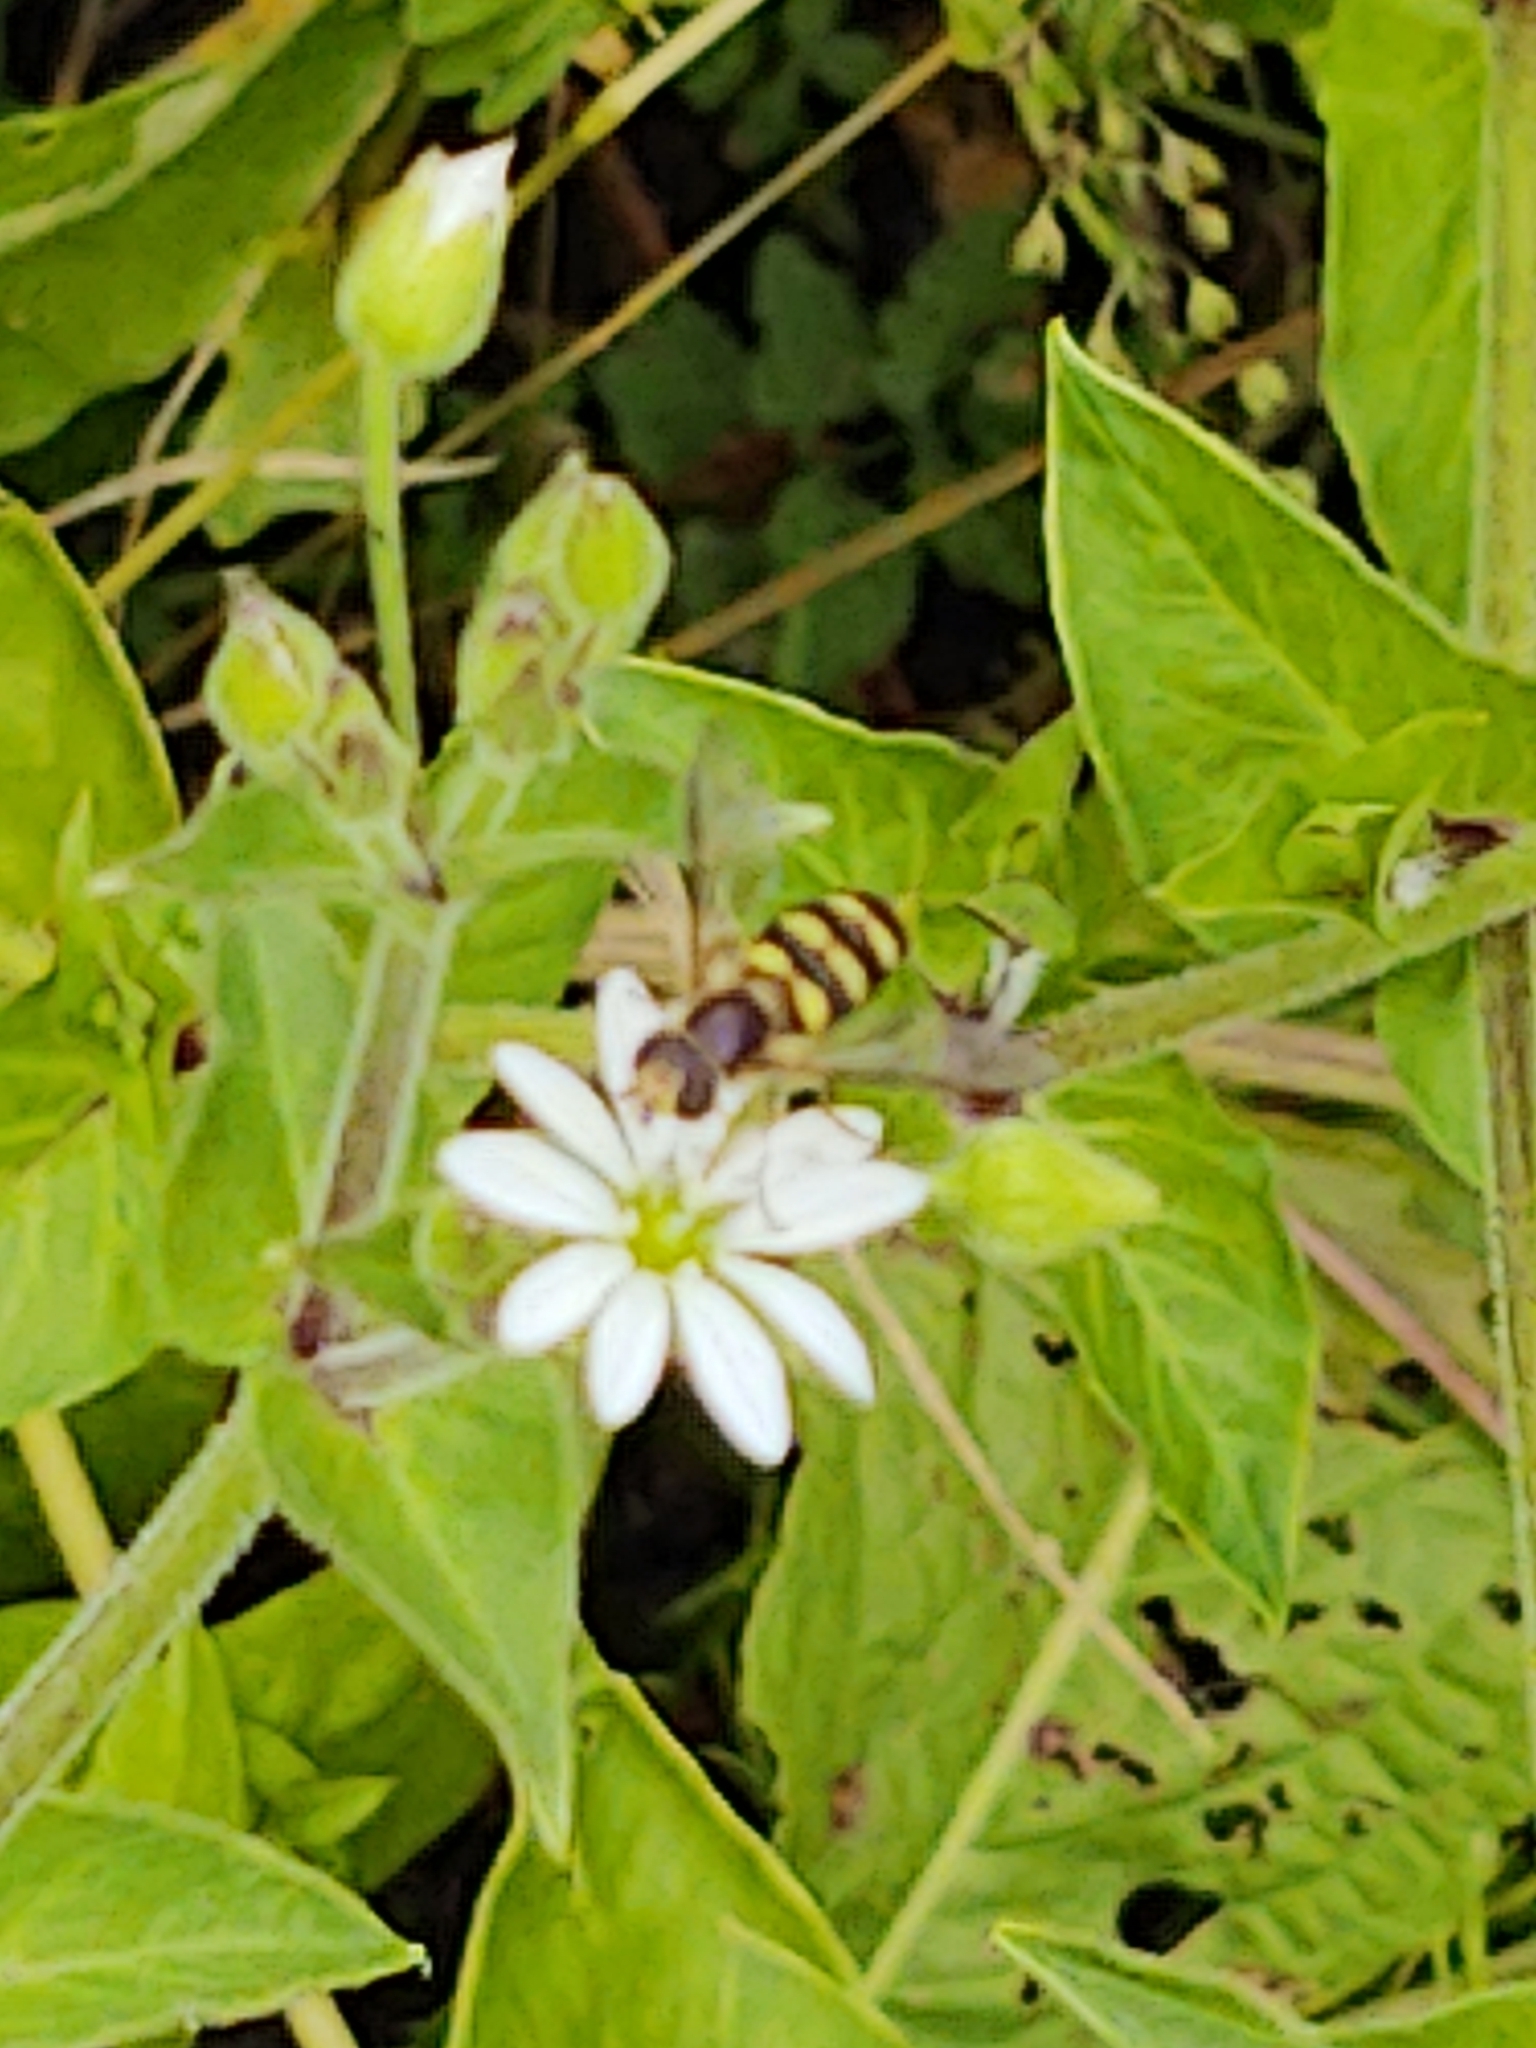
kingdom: Animalia
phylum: Arthropoda
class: Insecta
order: Diptera
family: Syrphidae
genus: Eupeodes
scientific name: Eupeodes
